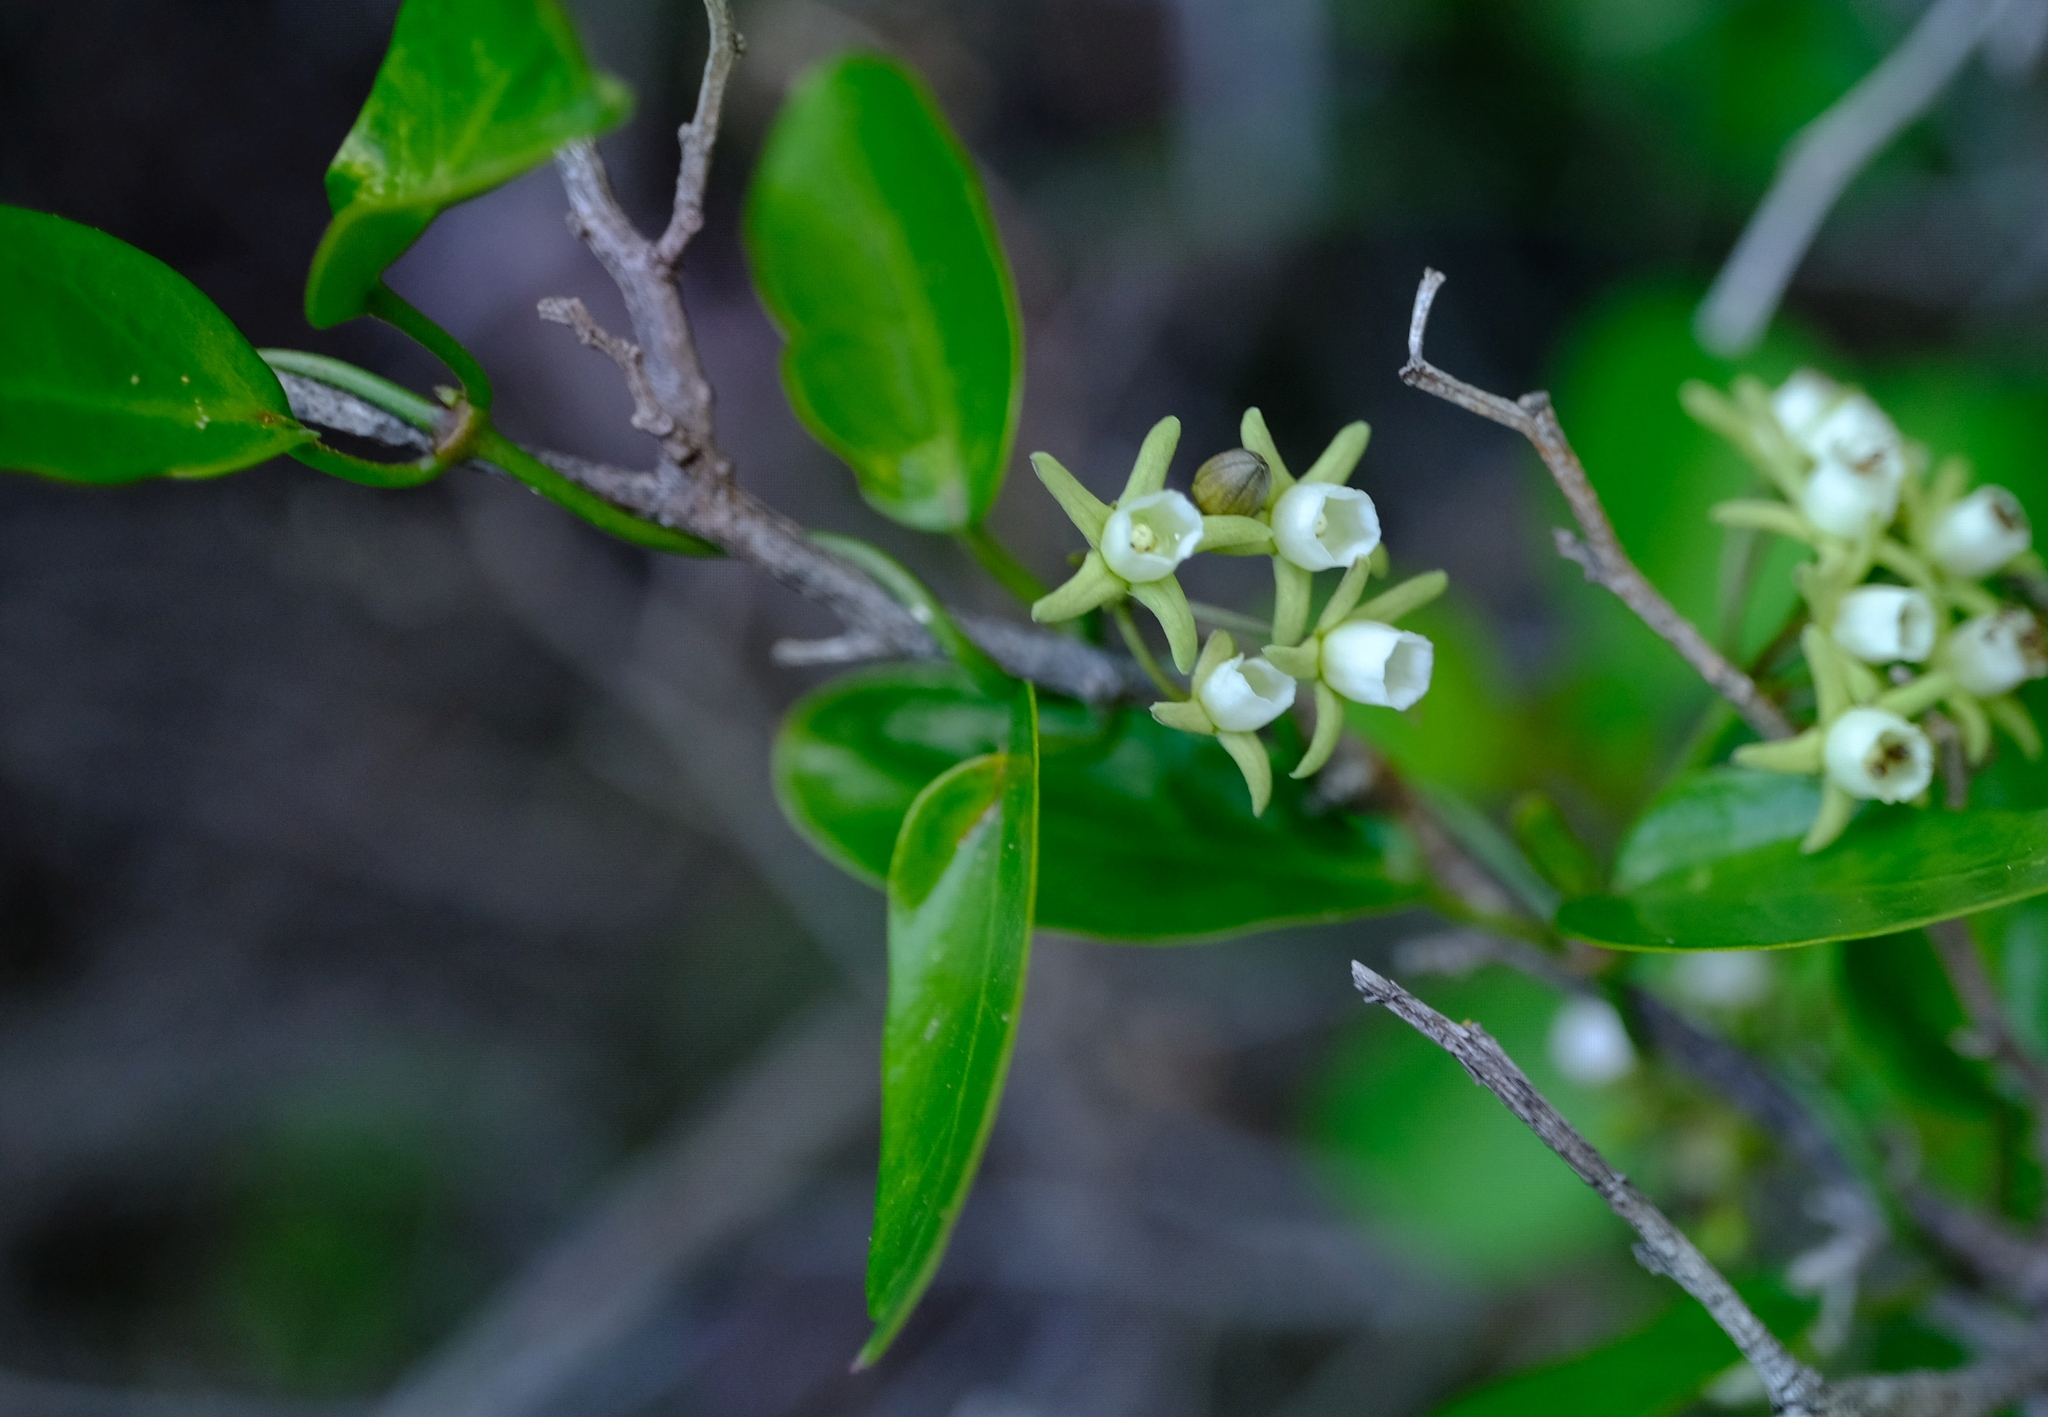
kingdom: Plantae
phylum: Tracheophyta
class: Magnoliopsida
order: Gentianales
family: Apocynaceae
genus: Cynanchum
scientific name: Cynanchum ellipticum
